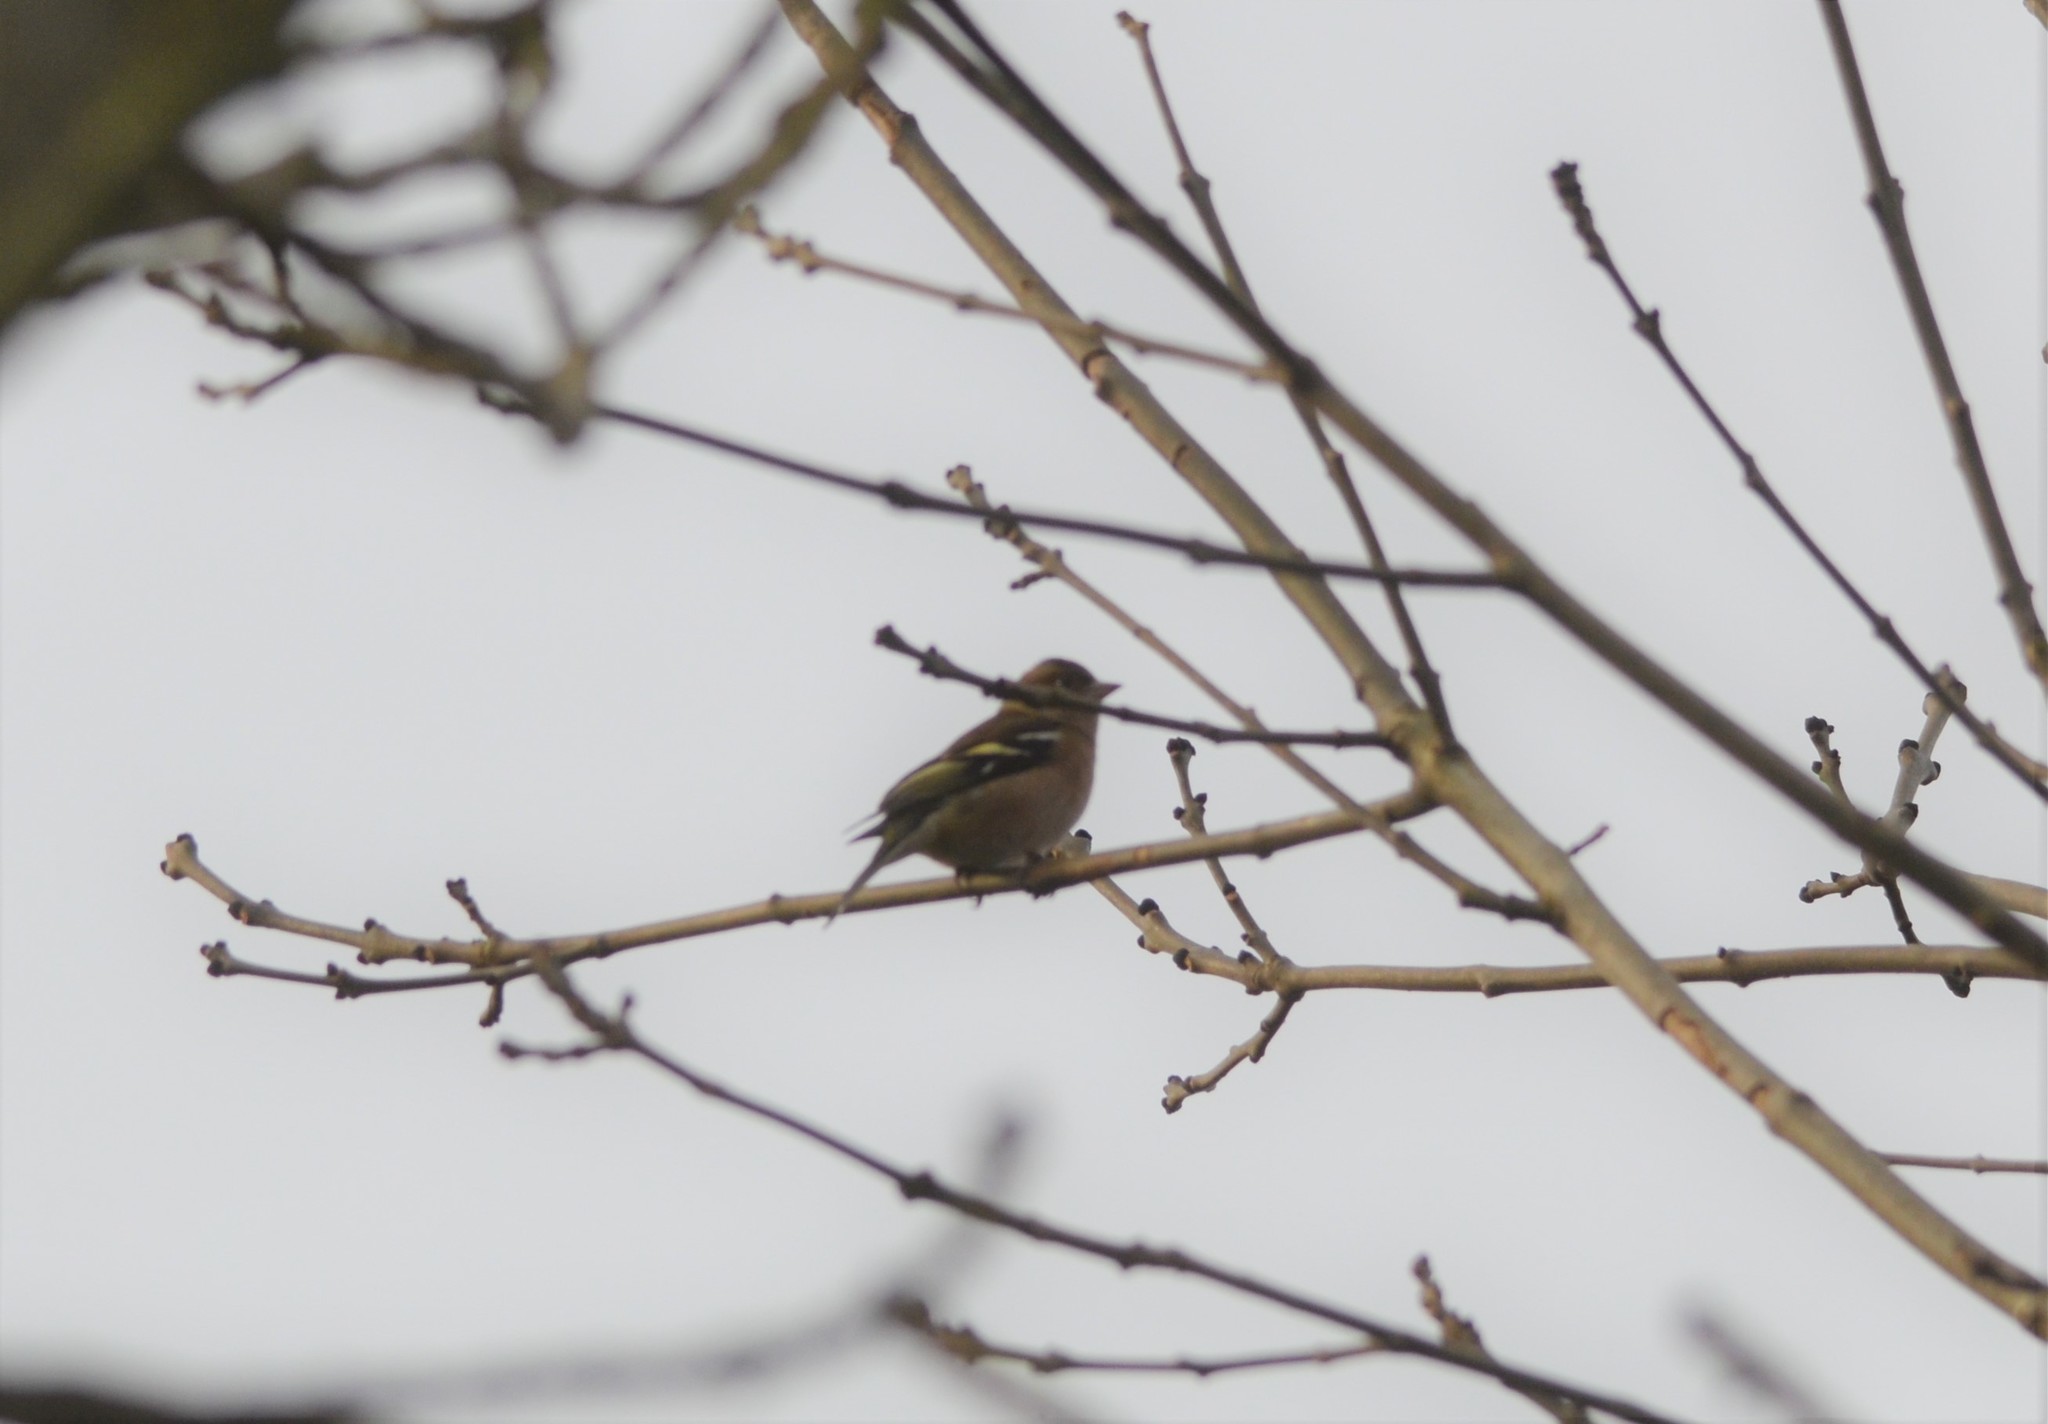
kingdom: Animalia
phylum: Chordata
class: Aves
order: Passeriformes
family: Fringillidae
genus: Fringilla
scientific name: Fringilla coelebs
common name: Common chaffinch
